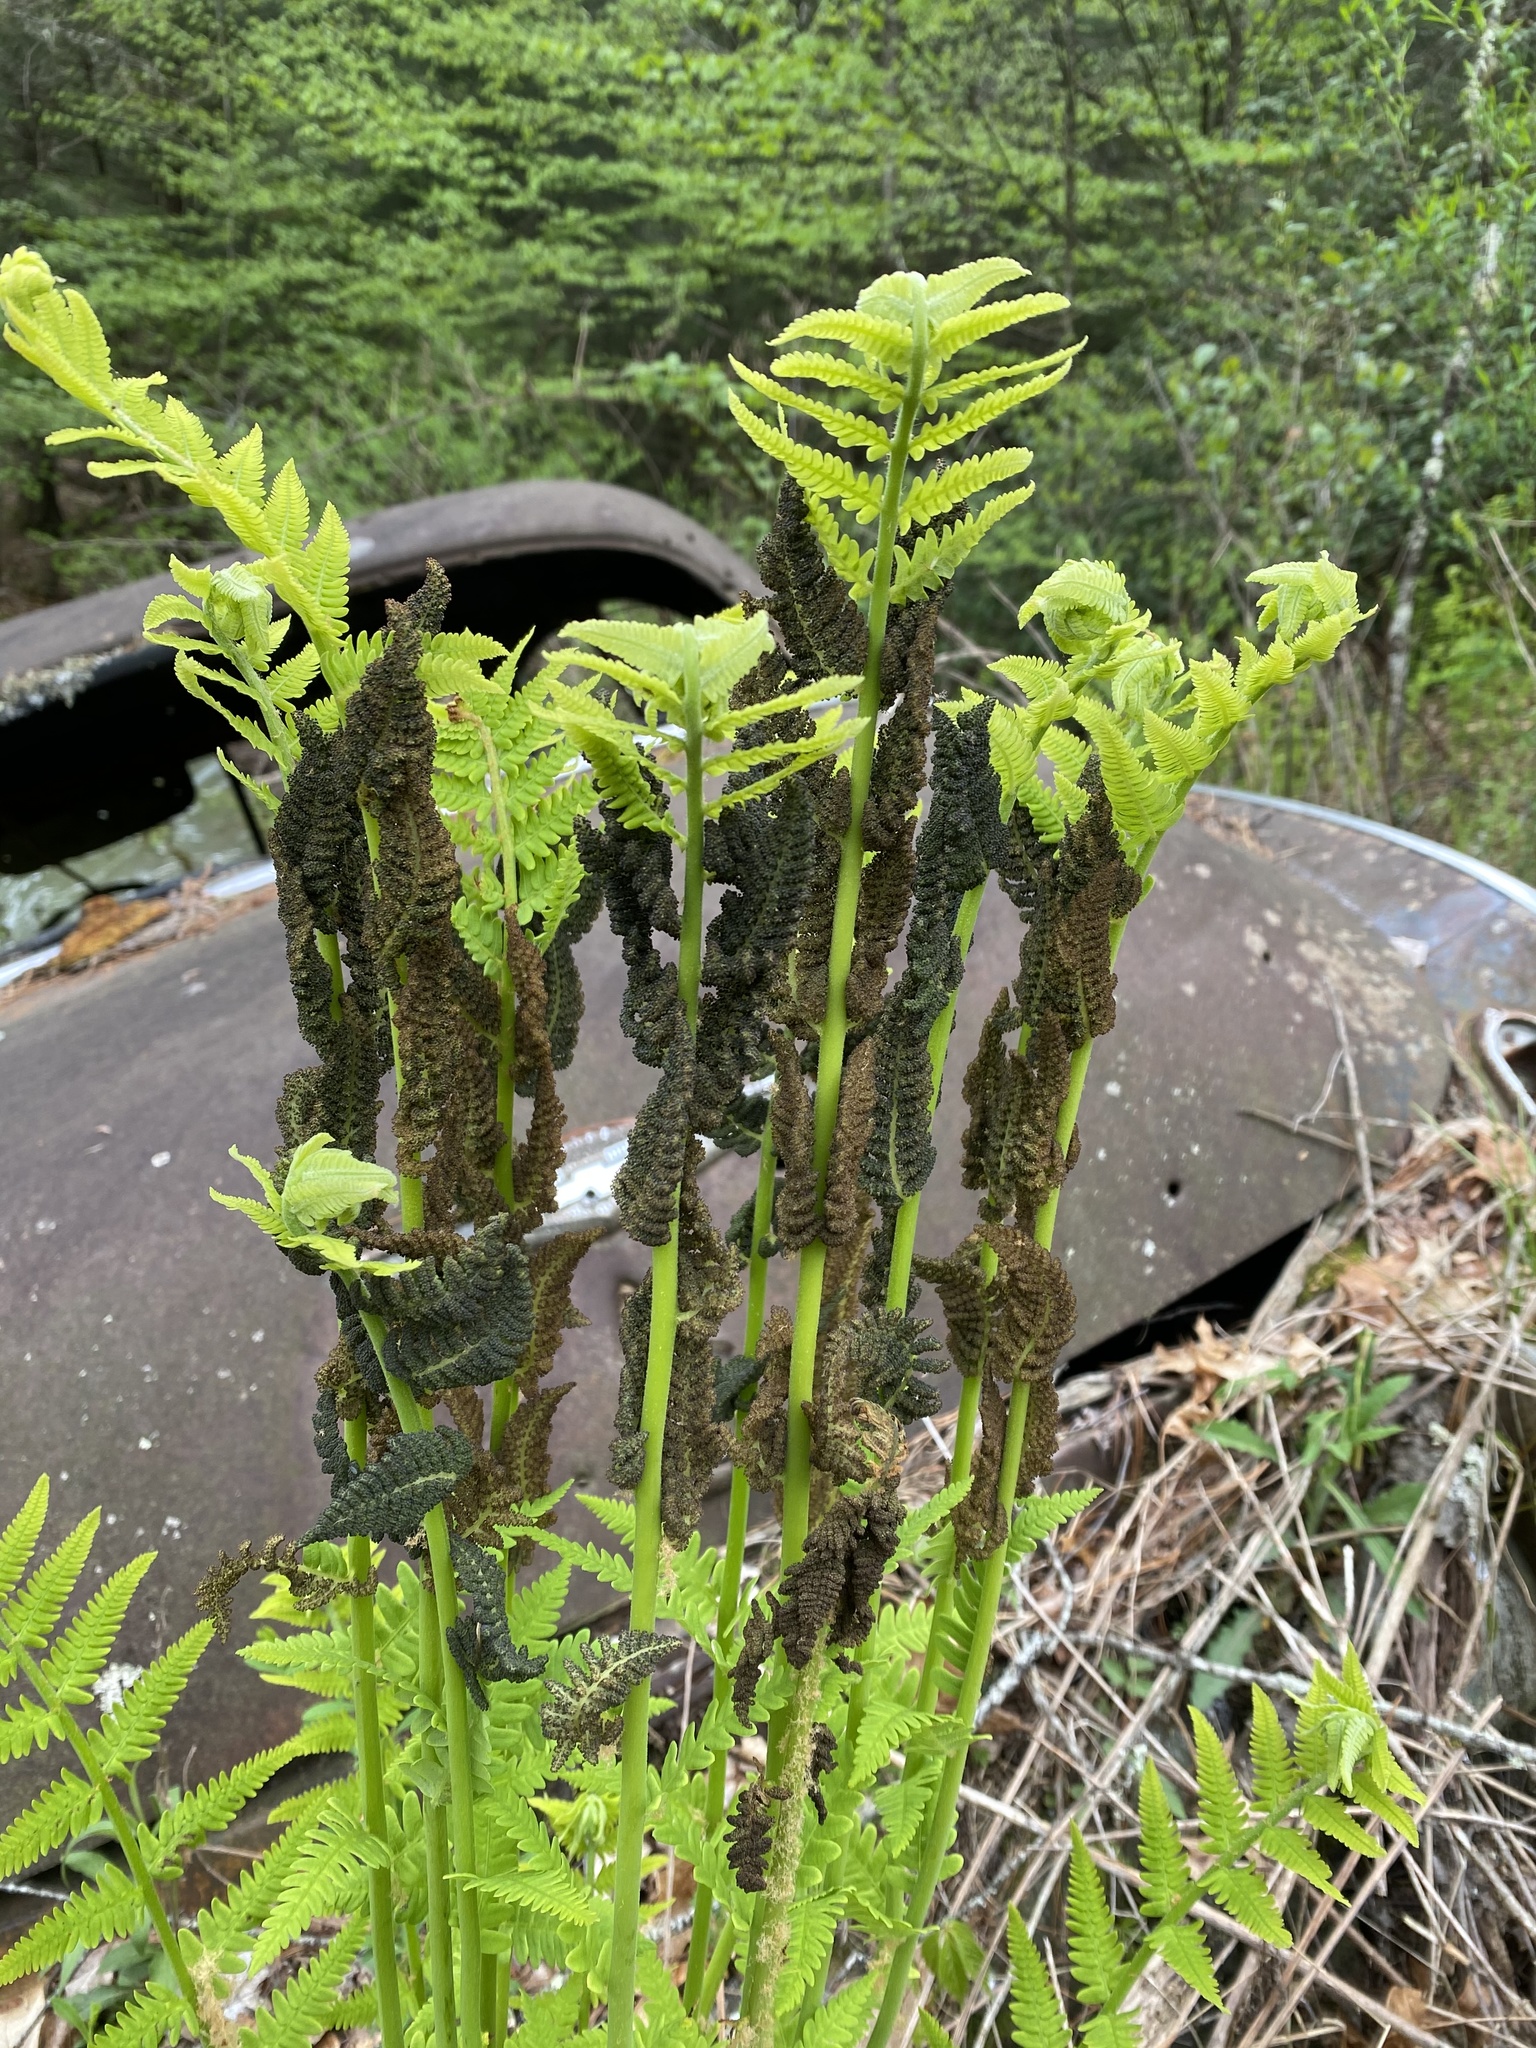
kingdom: Plantae
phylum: Tracheophyta
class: Polypodiopsida
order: Osmundales
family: Osmundaceae
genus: Claytosmunda
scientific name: Claytosmunda claytoniana
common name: Clayton's fern
